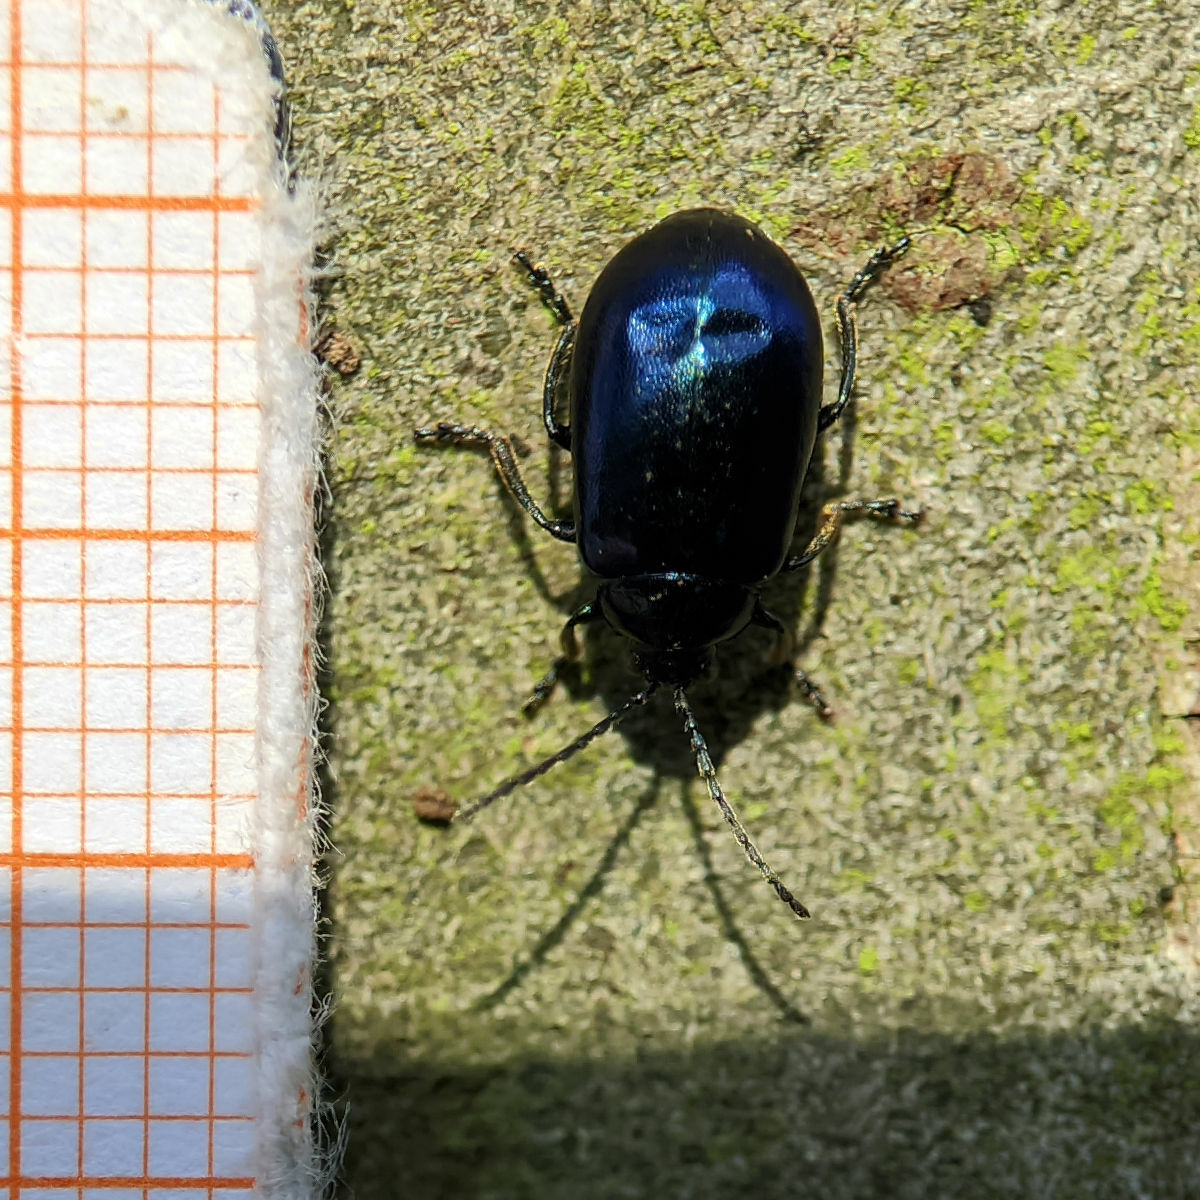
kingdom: Animalia
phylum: Arthropoda
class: Insecta
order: Coleoptera
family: Chrysomelidae
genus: Agelastica
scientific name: Agelastica alni
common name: Alder leaf beetle
